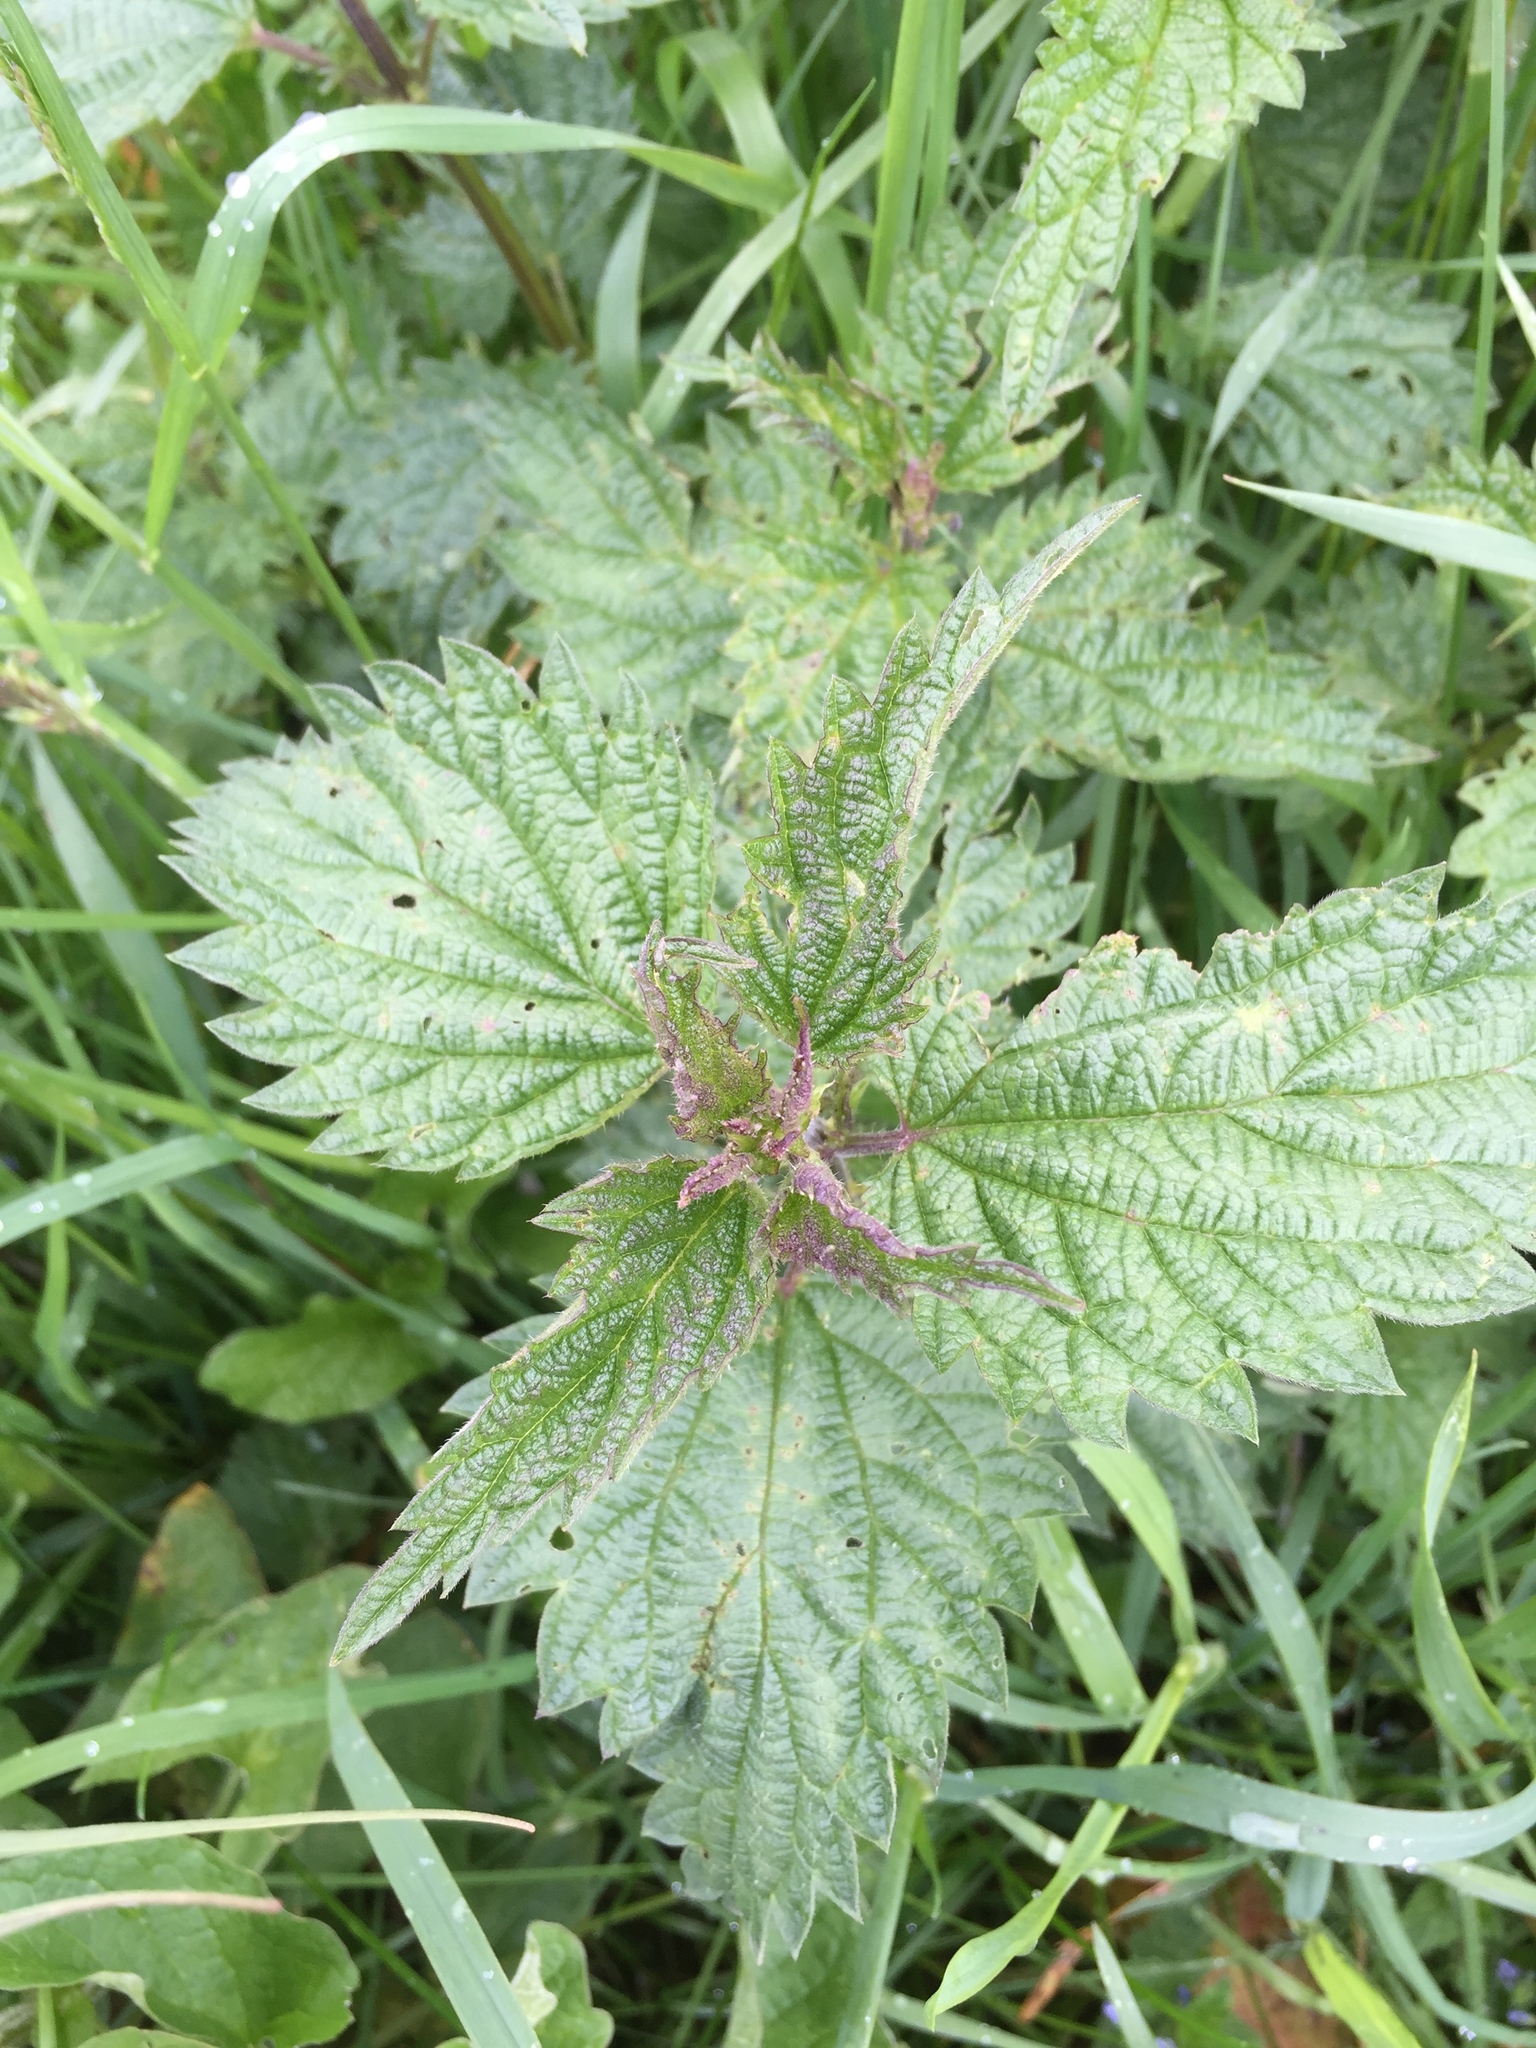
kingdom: Plantae
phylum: Tracheophyta
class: Magnoliopsida
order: Rosales
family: Urticaceae
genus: Urtica
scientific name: Urtica dioica
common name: Common nettle
